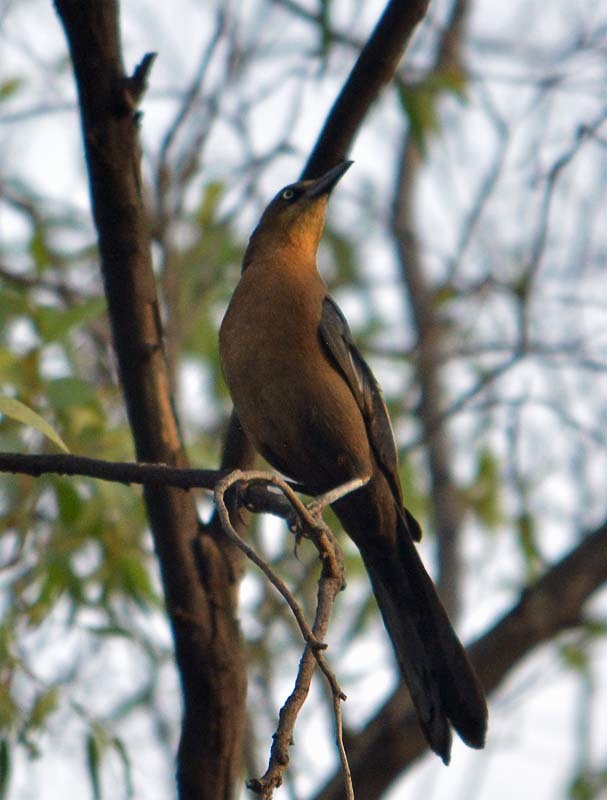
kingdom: Animalia
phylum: Chordata
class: Aves
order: Passeriformes
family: Icteridae
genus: Quiscalus
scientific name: Quiscalus mexicanus
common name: Great-tailed grackle
